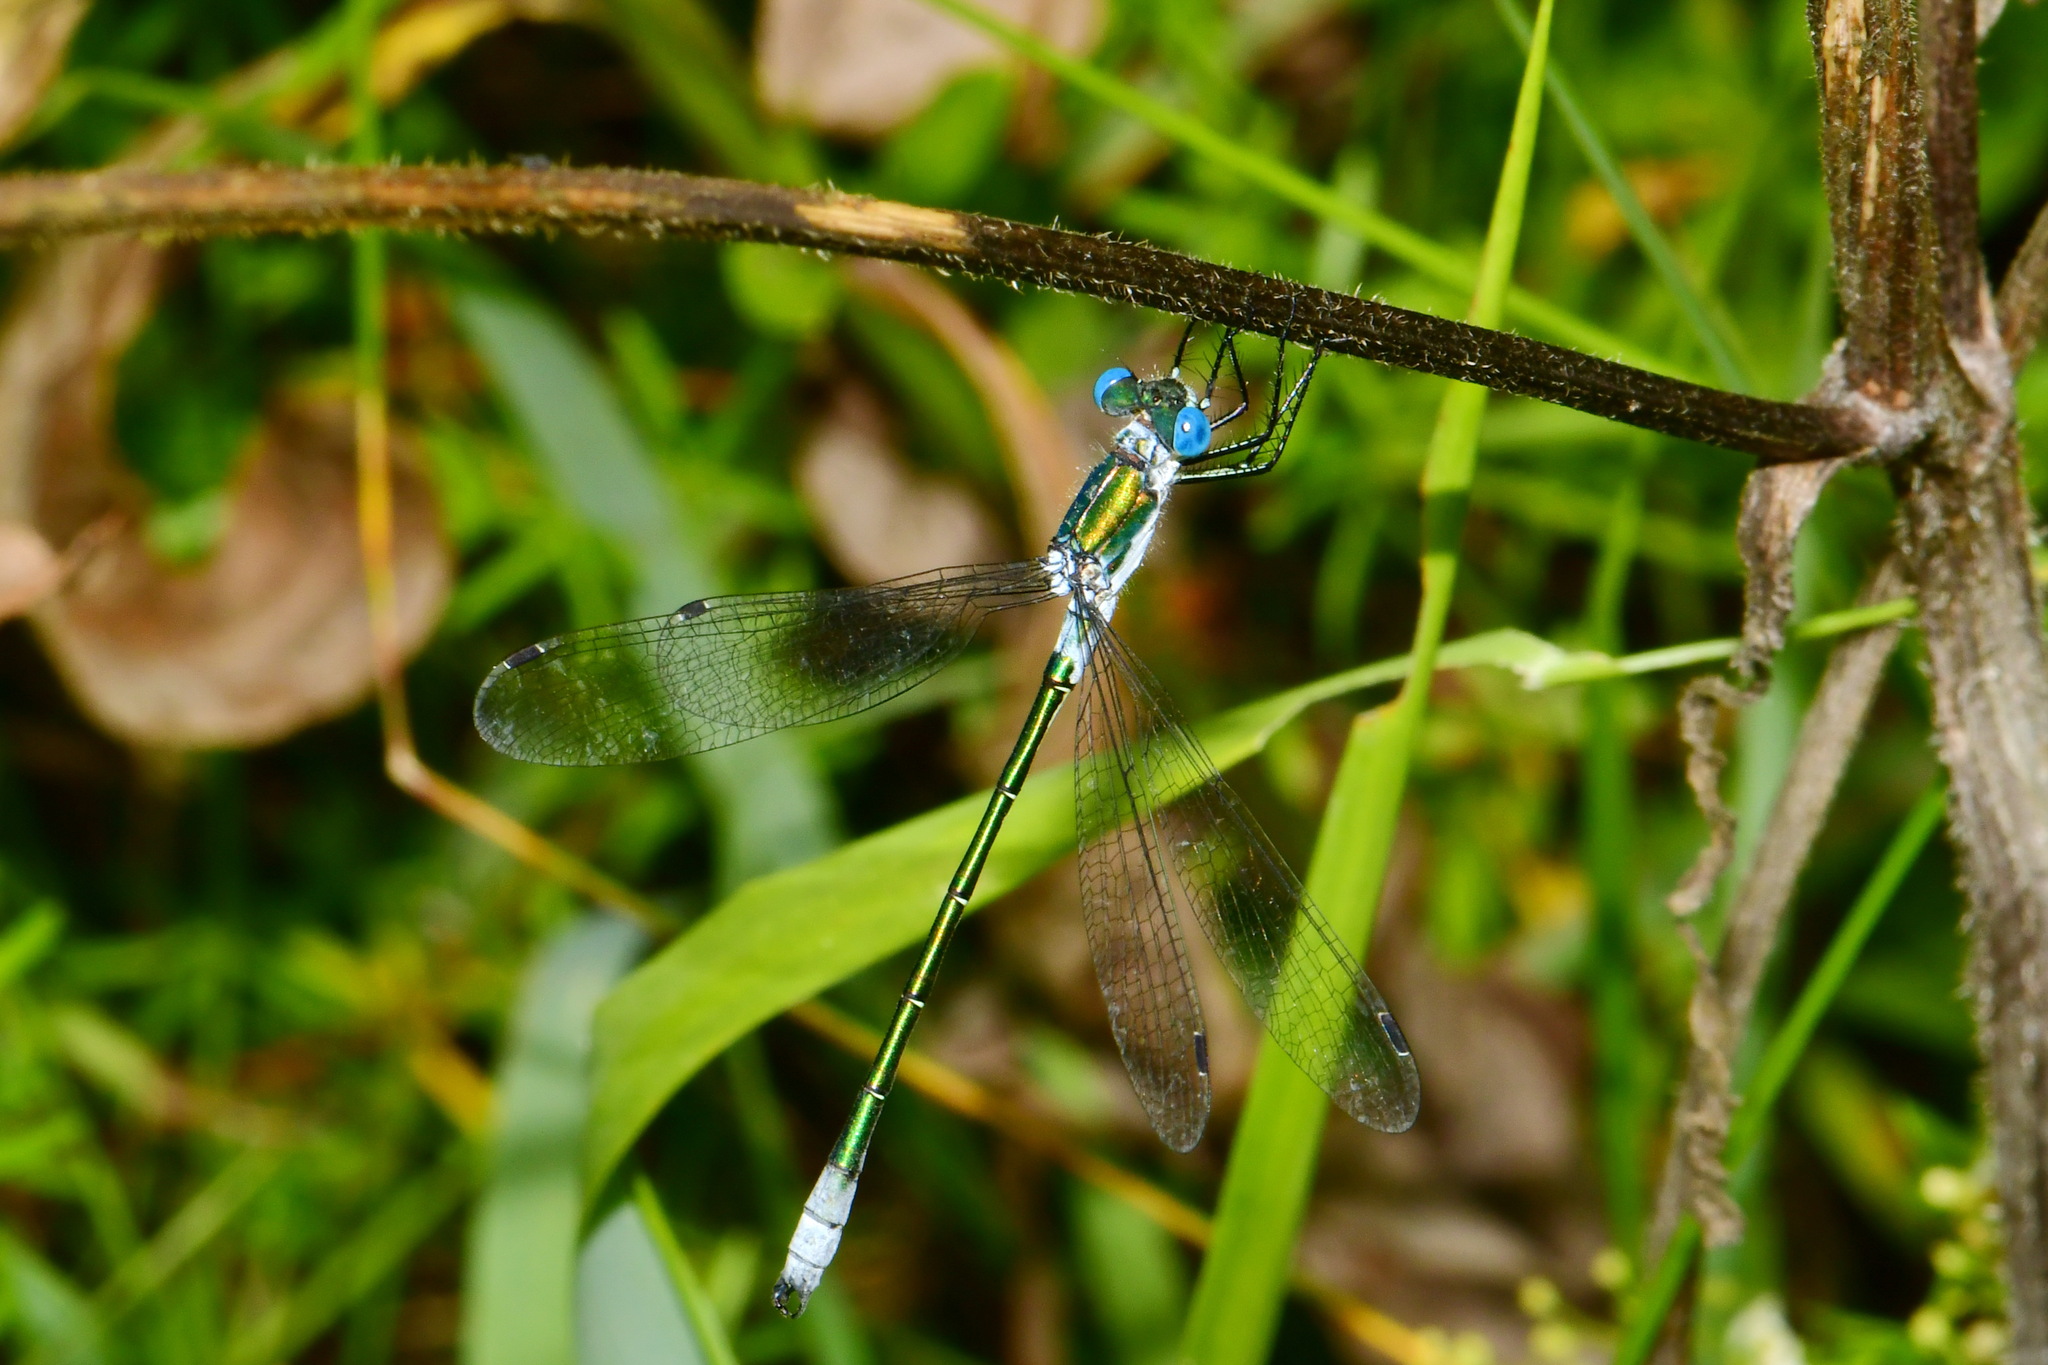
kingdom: Animalia
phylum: Arthropoda
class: Insecta
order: Odonata
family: Lestidae
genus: Lestes
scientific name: Lestes dryas
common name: Scarce emerald damselfly
